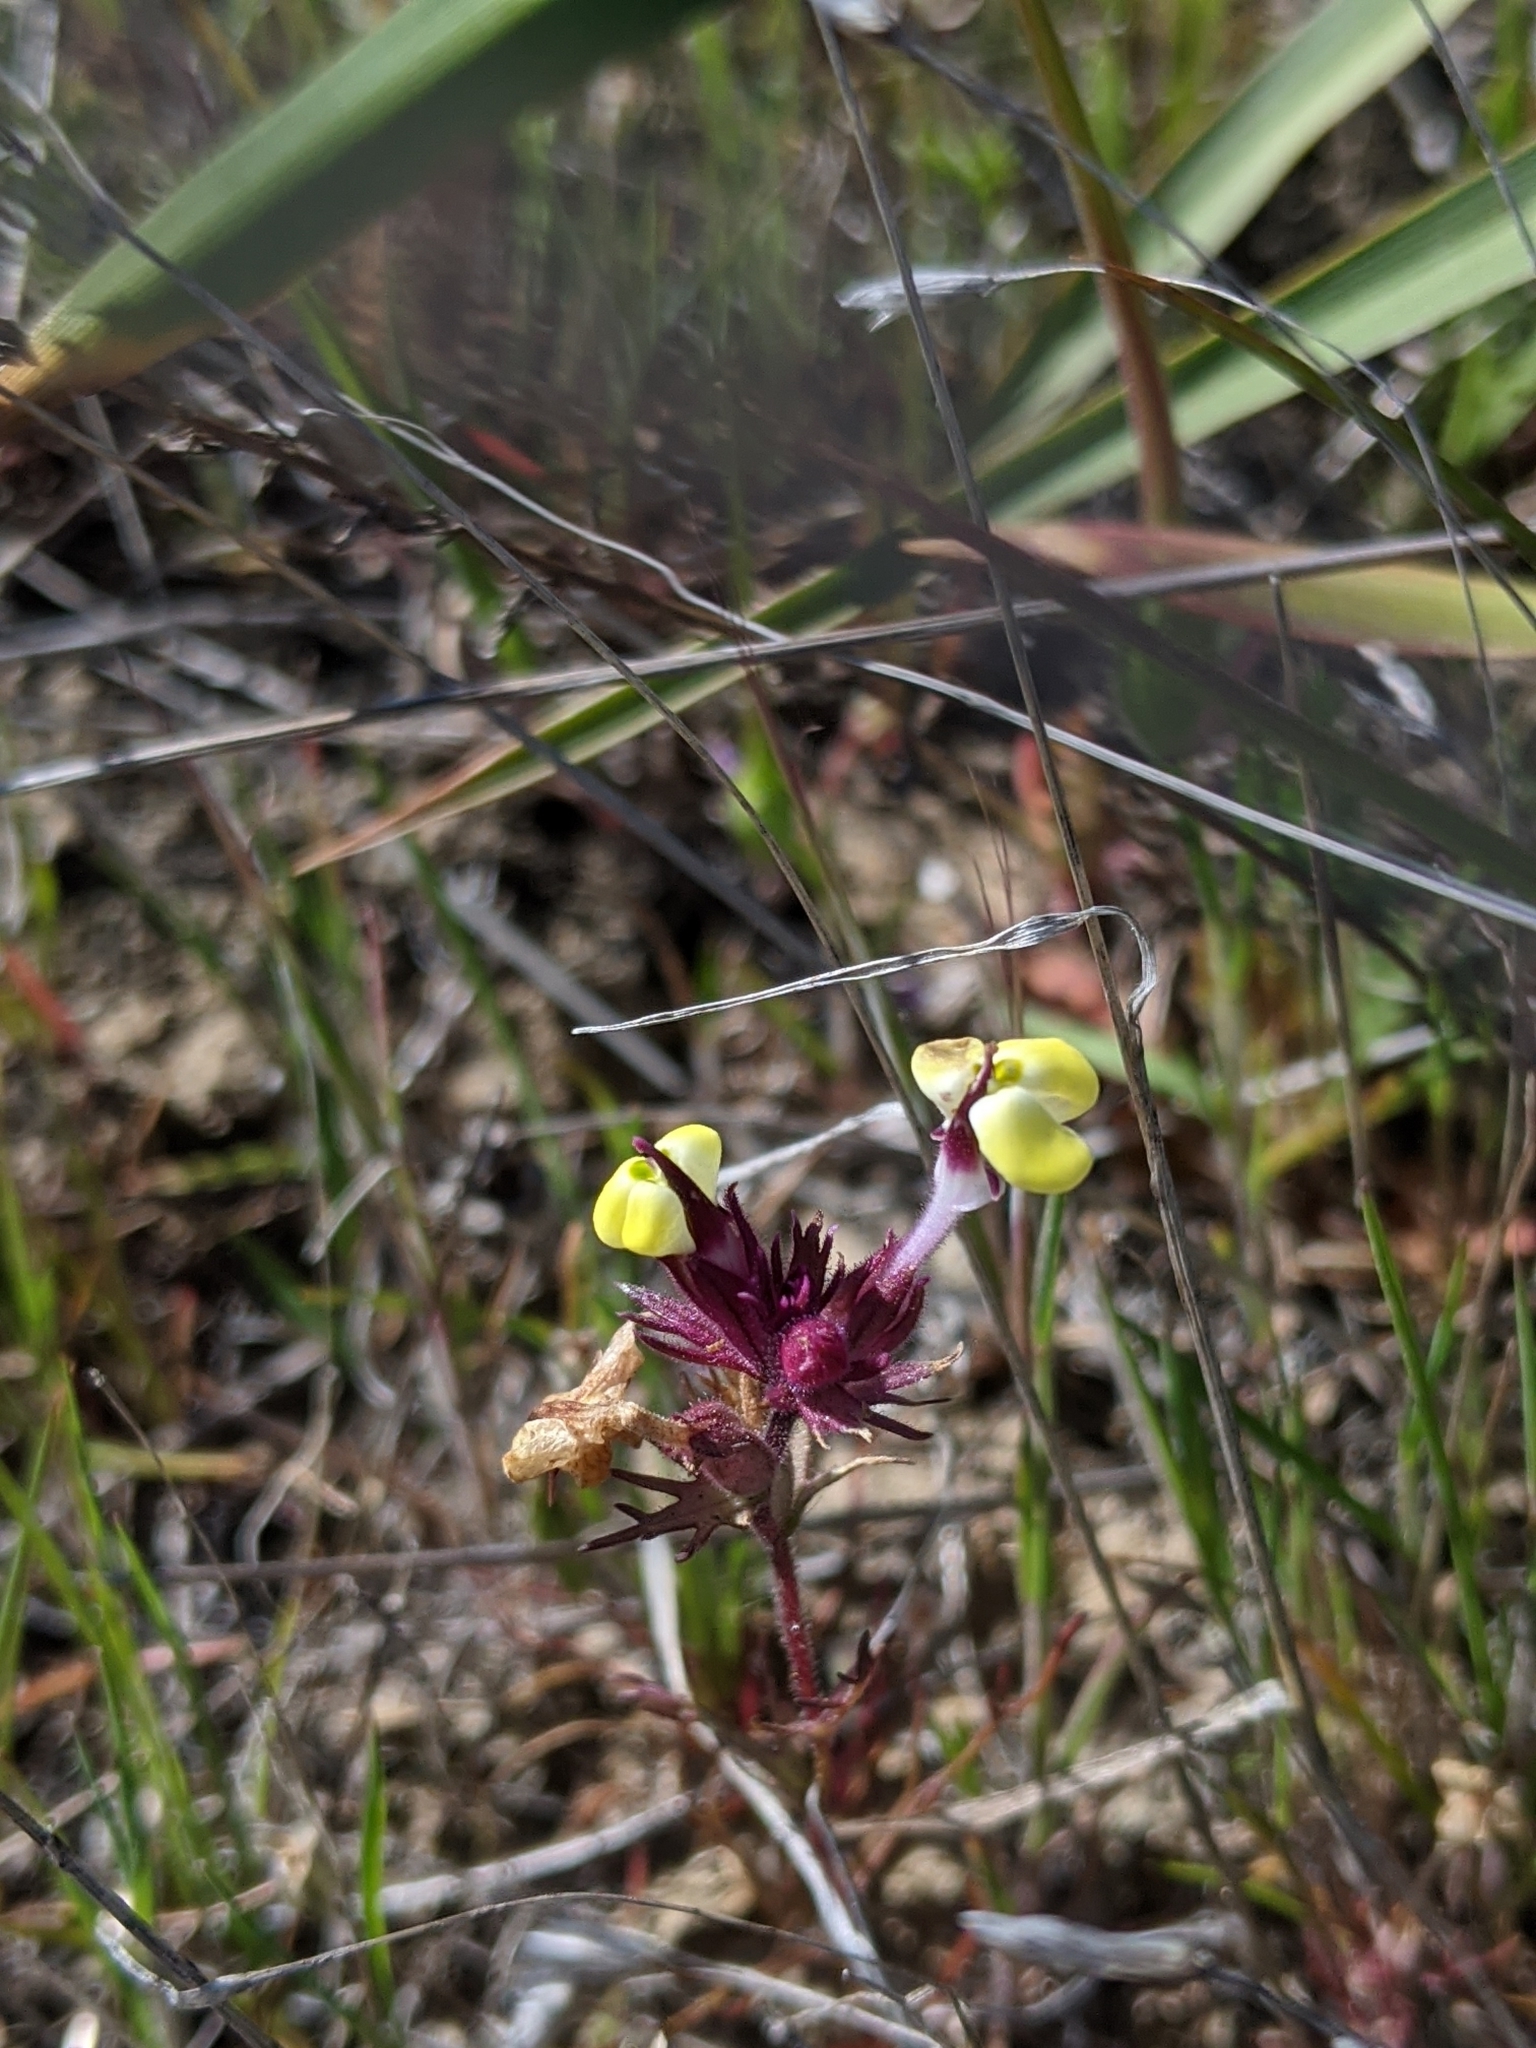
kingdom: Plantae
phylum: Tracheophyta
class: Magnoliopsida
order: Lamiales
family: Orobanchaceae
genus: Triphysaria
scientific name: Triphysaria eriantha
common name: Johnny-tuck
